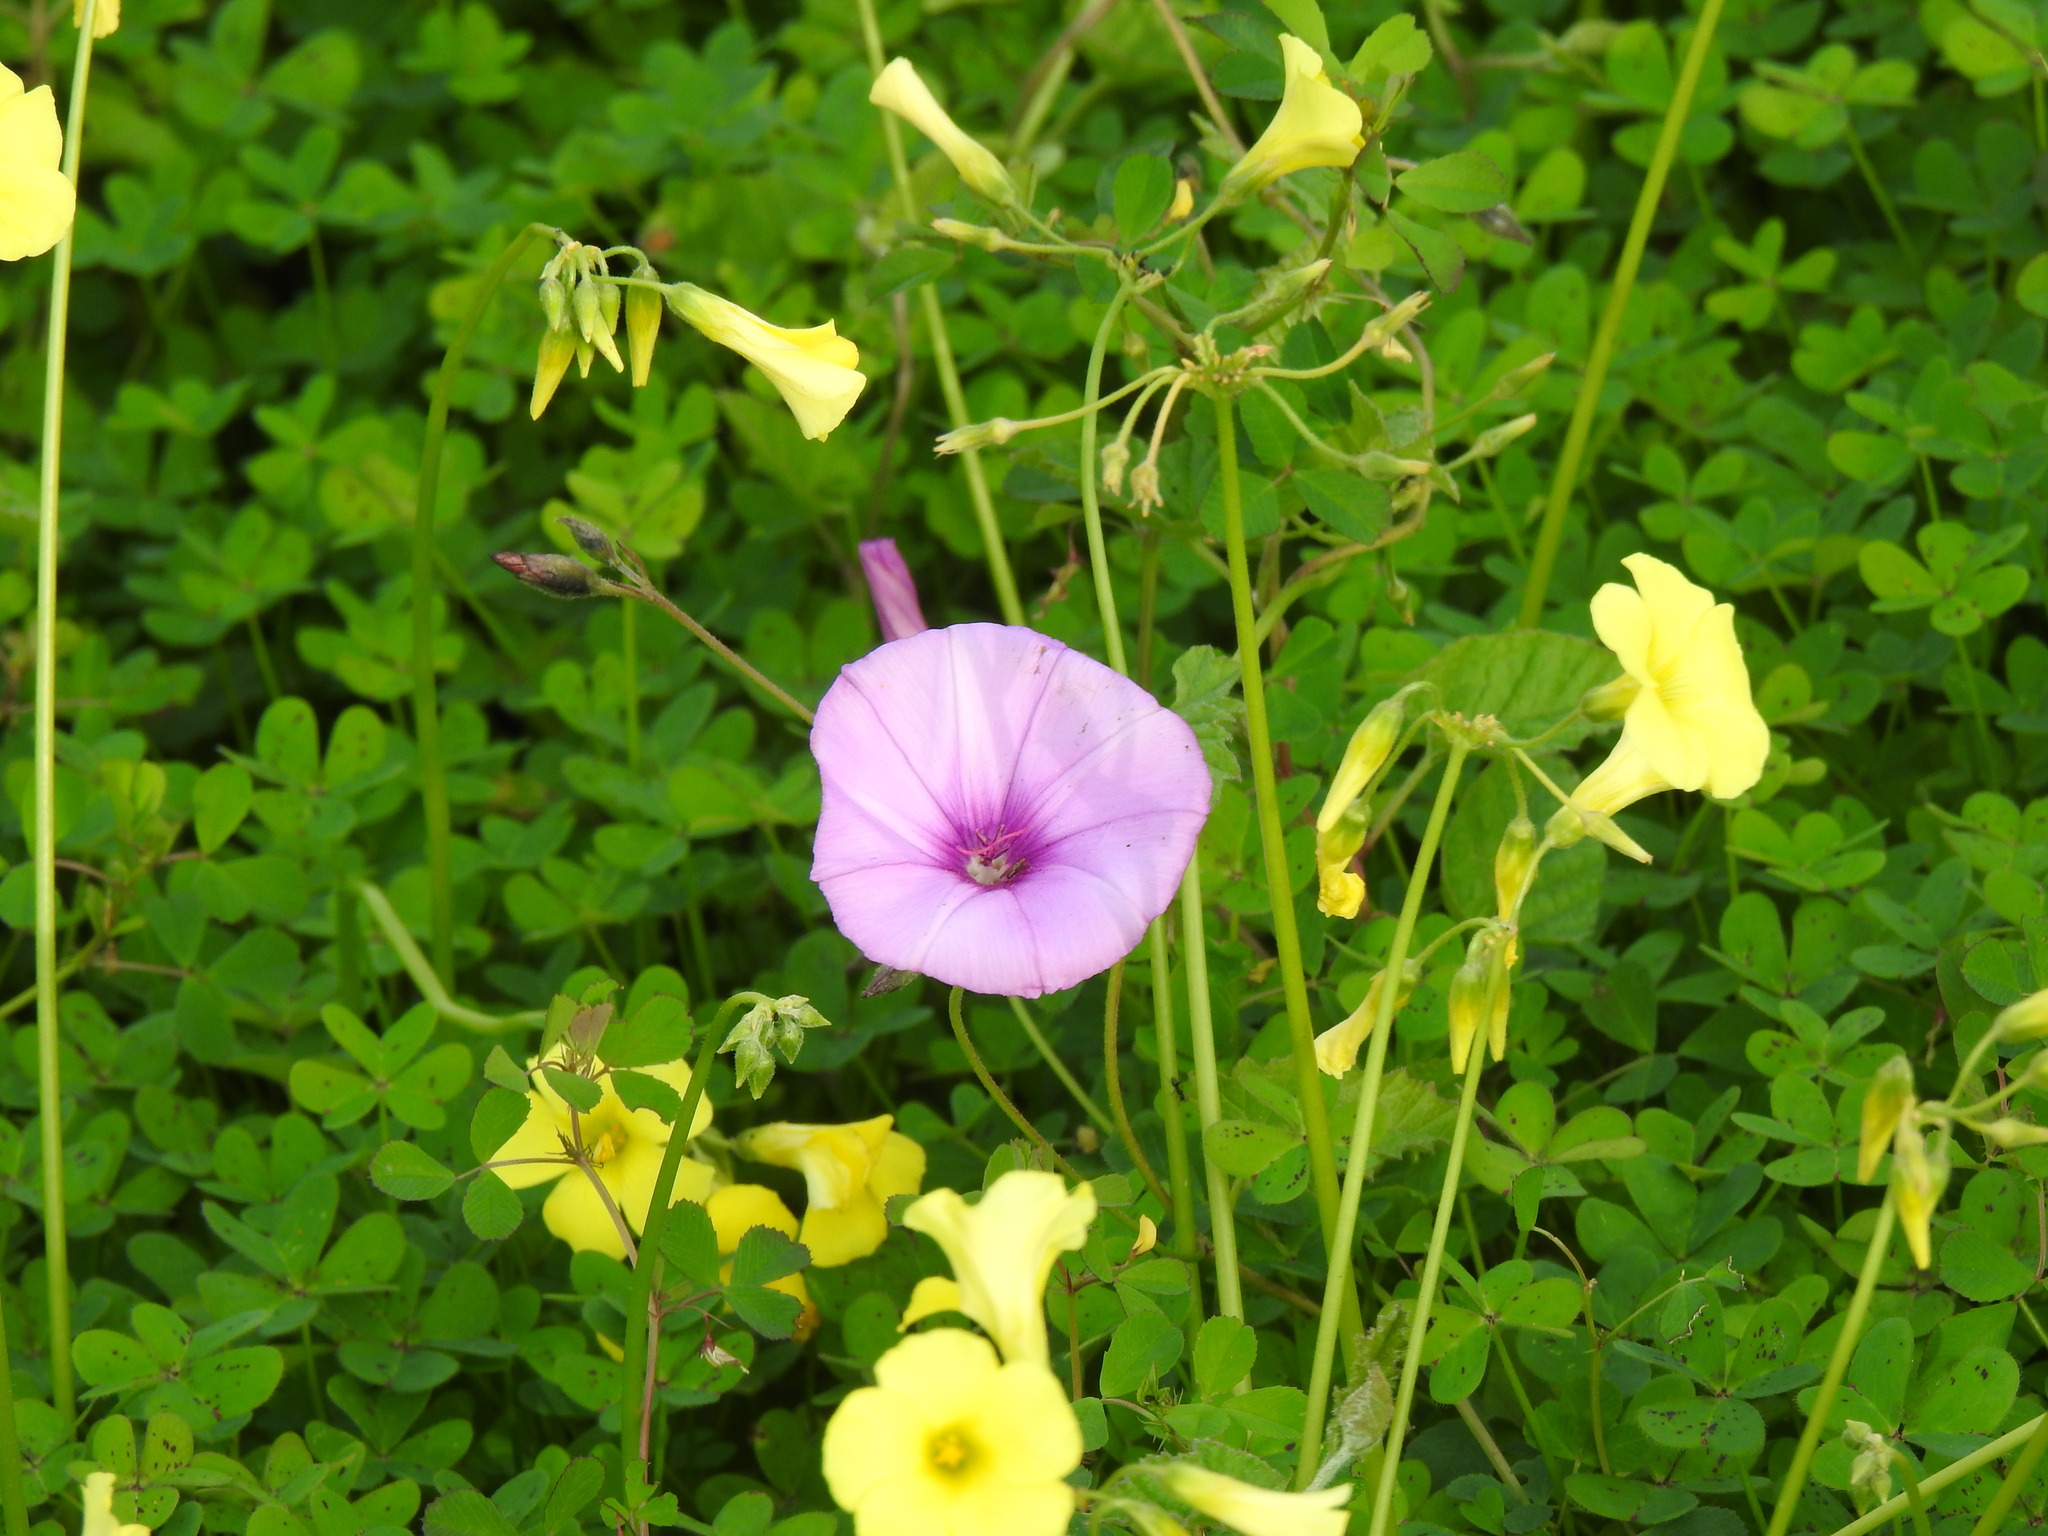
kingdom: Plantae
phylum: Tracheophyta
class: Magnoliopsida
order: Solanales
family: Convolvulaceae
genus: Convolvulus
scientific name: Convolvulus althaeoides
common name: Mallow bindweed
